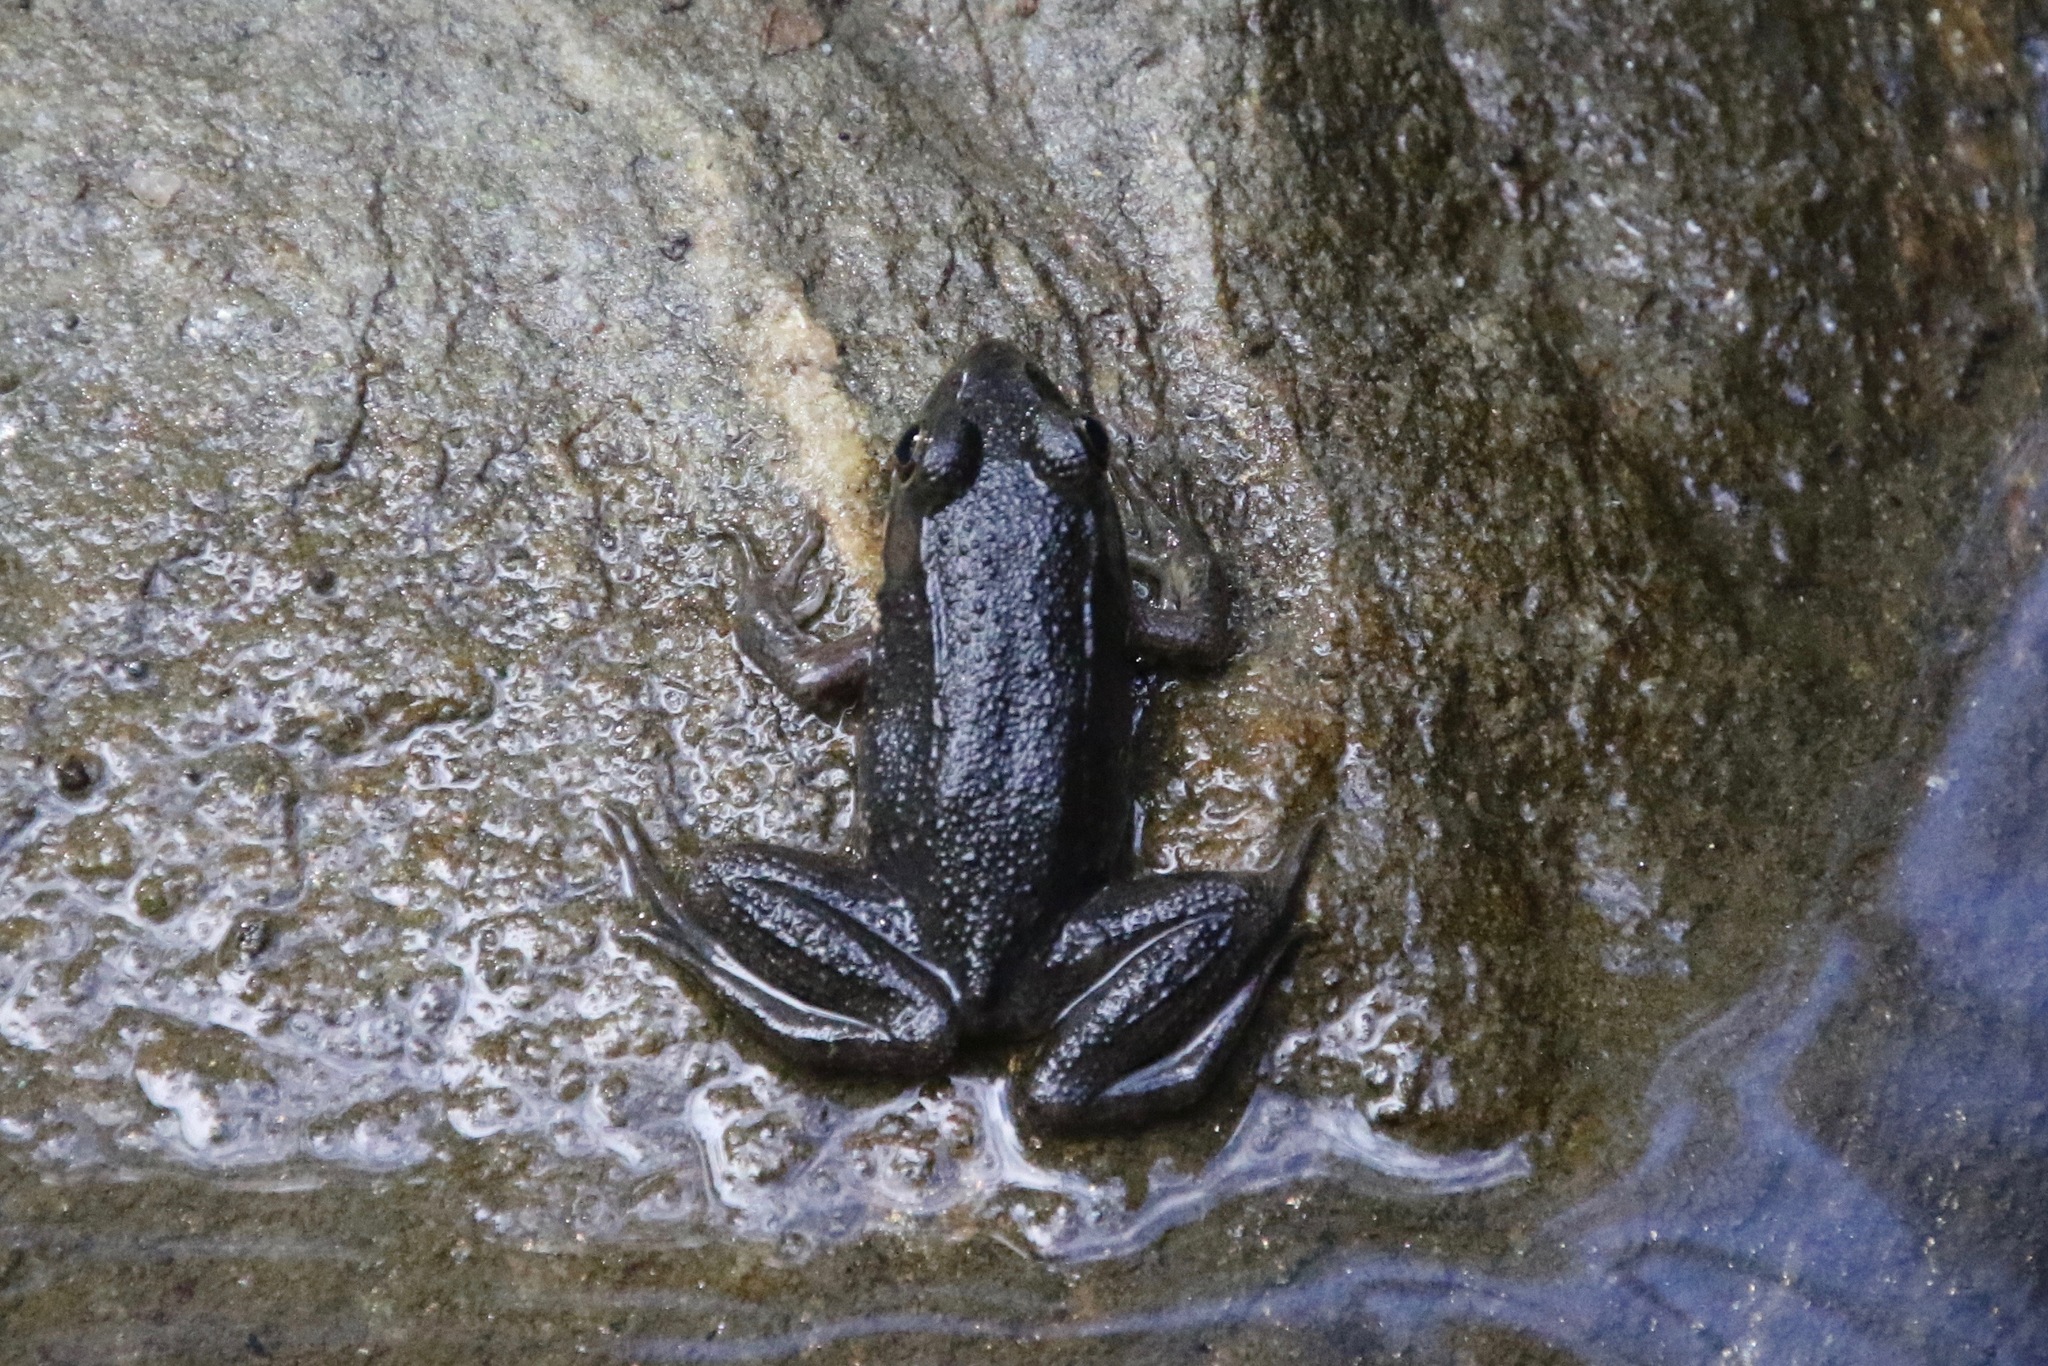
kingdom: Animalia
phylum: Chordata
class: Amphibia
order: Anura
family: Ranidae
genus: Lithobates
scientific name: Lithobates clamitans
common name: Green frog
